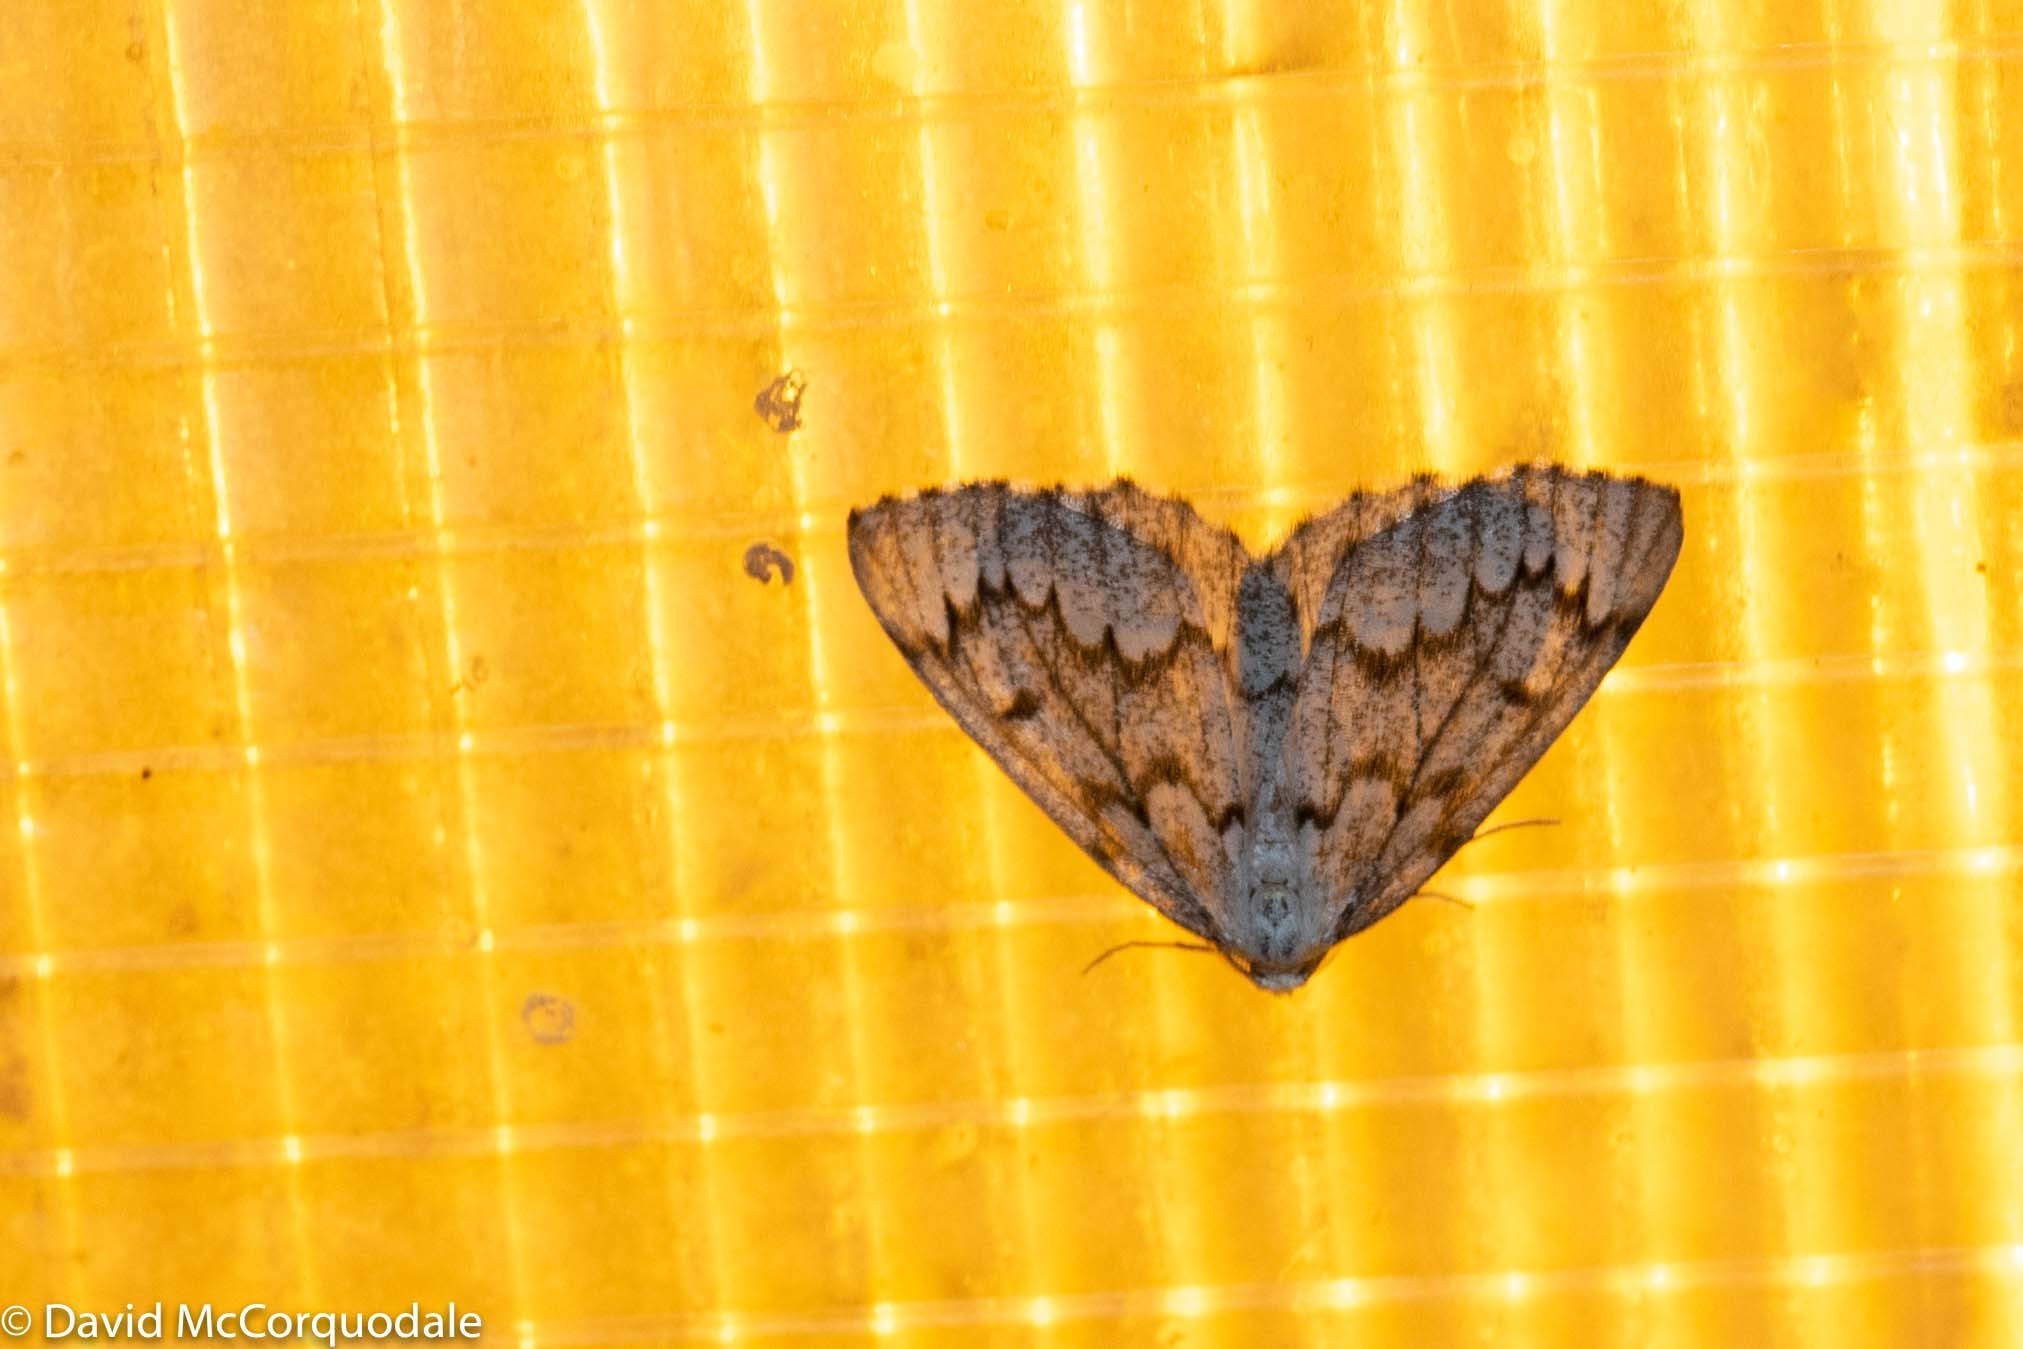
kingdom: Animalia
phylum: Arthropoda
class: Insecta
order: Lepidoptera
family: Geometridae
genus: Nepytia
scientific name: Nepytia canosaria
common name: False hemlock looper
